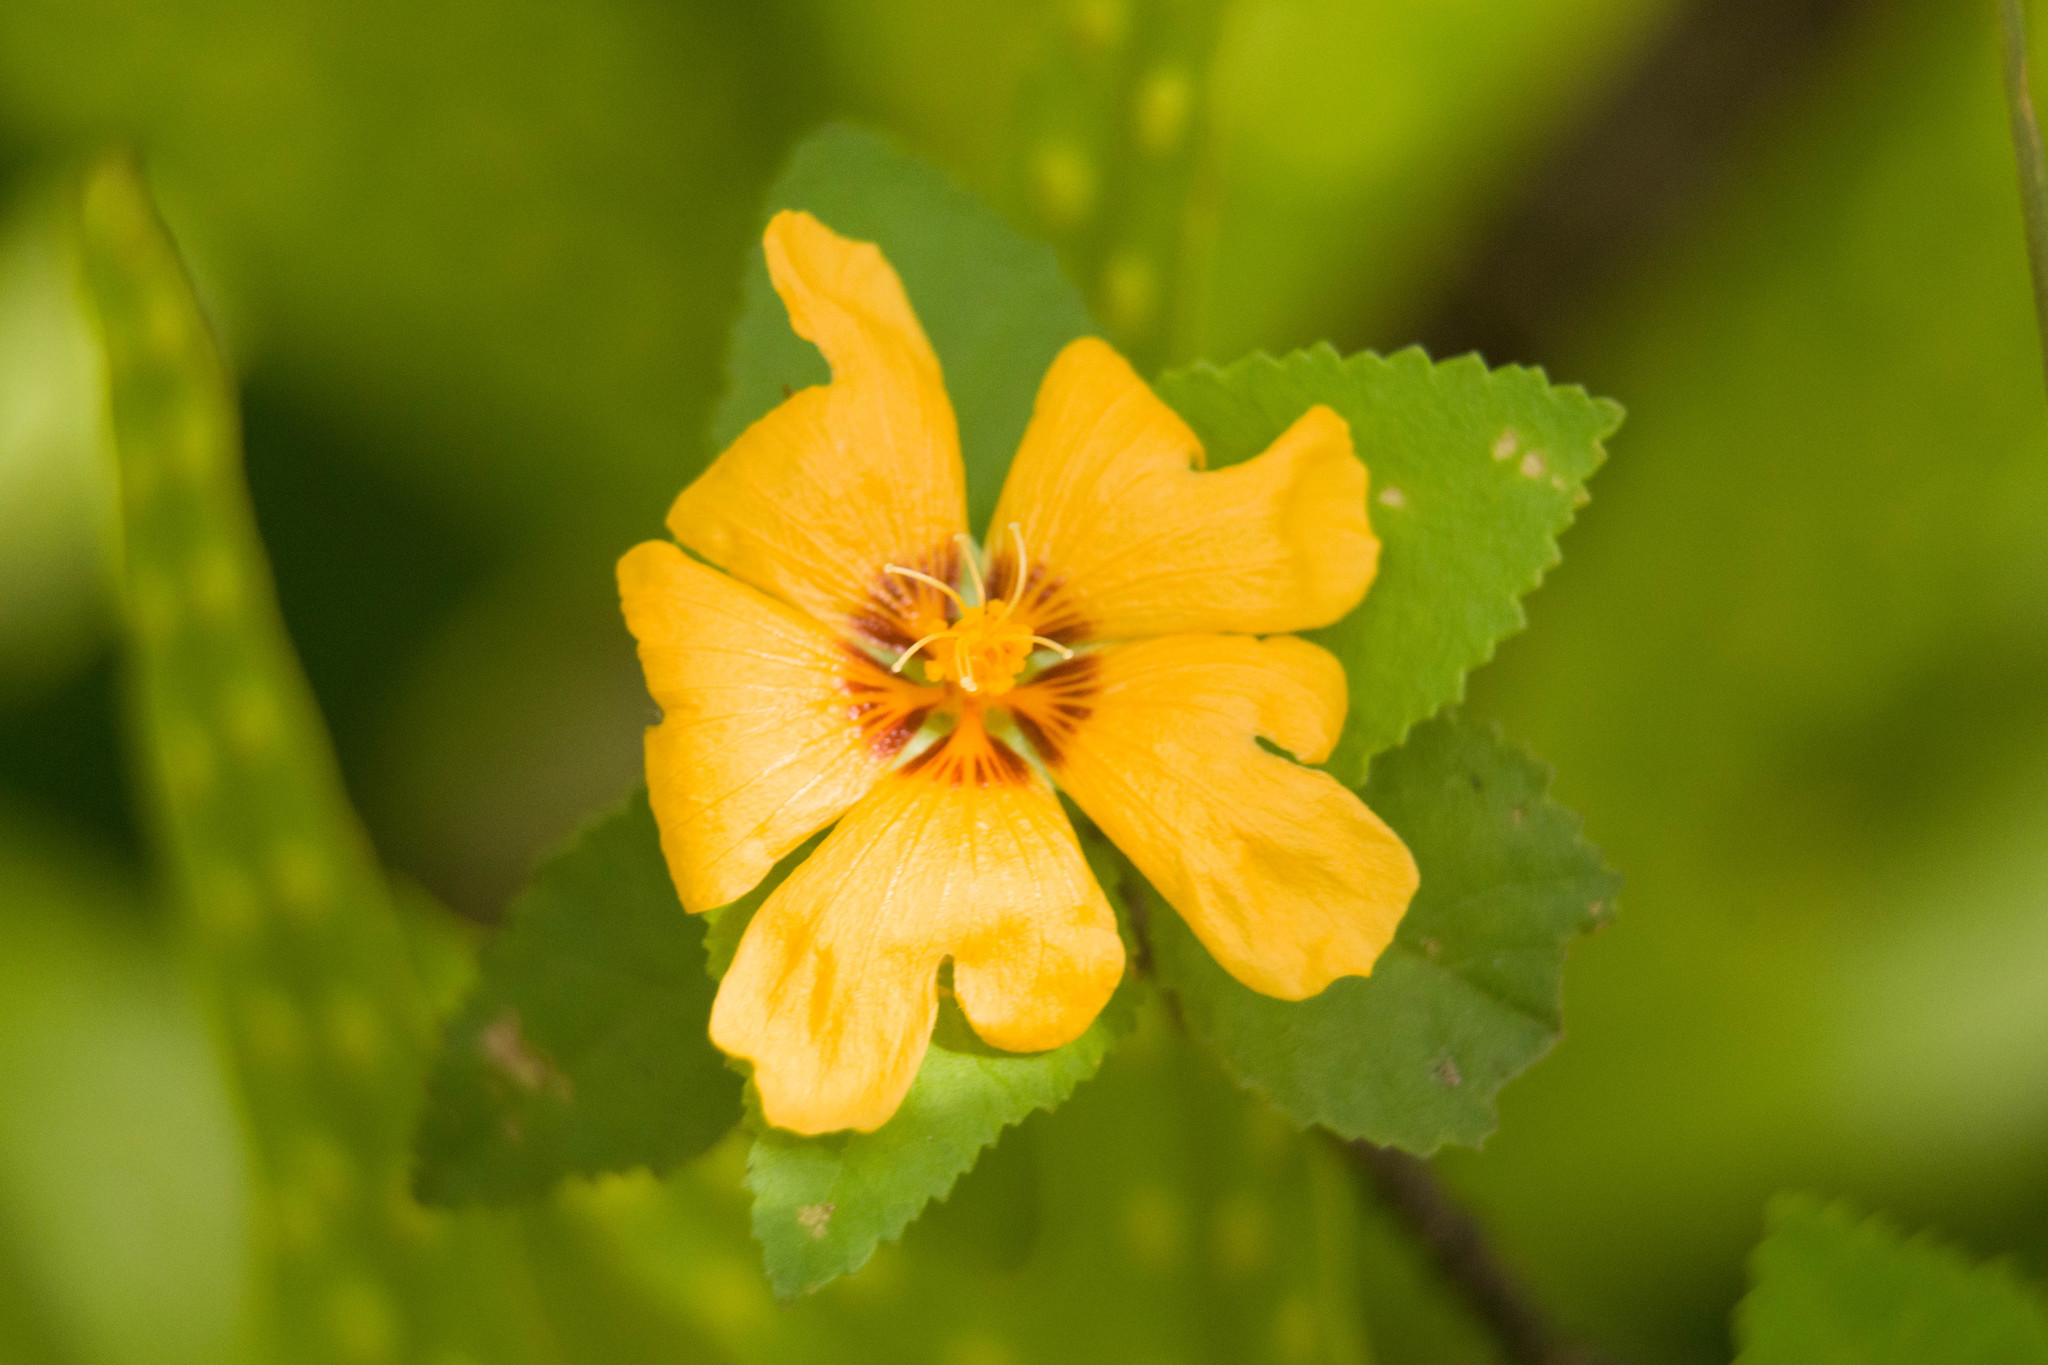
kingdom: Plantae
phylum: Tracheophyta
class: Magnoliopsida
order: Malvales
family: Malvaceae
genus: Sida
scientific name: Sida fallax
